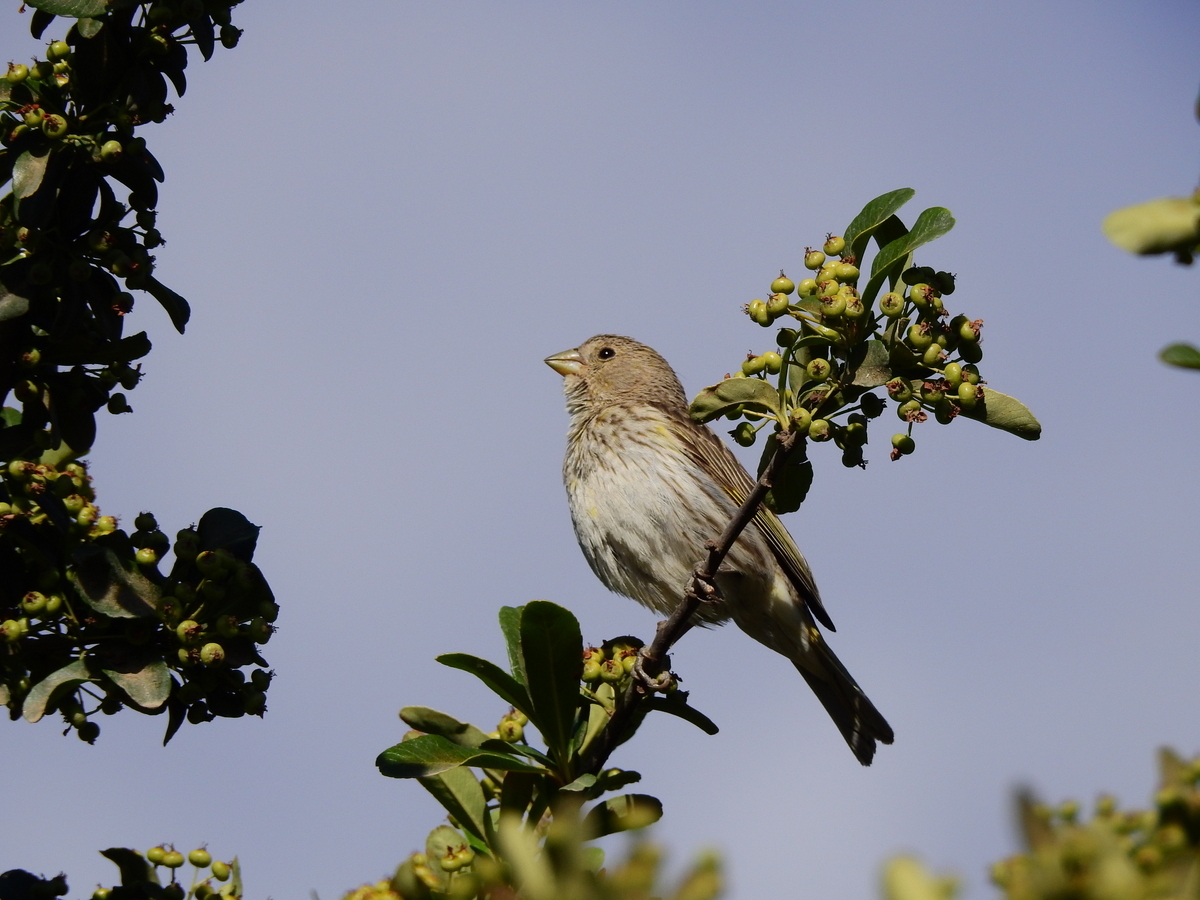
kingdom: Animalia
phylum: Chordata
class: Aves
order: Passeriformes
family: Thraupidae
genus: Sicalis
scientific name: Sicalis flaveola
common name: Saffron finch
